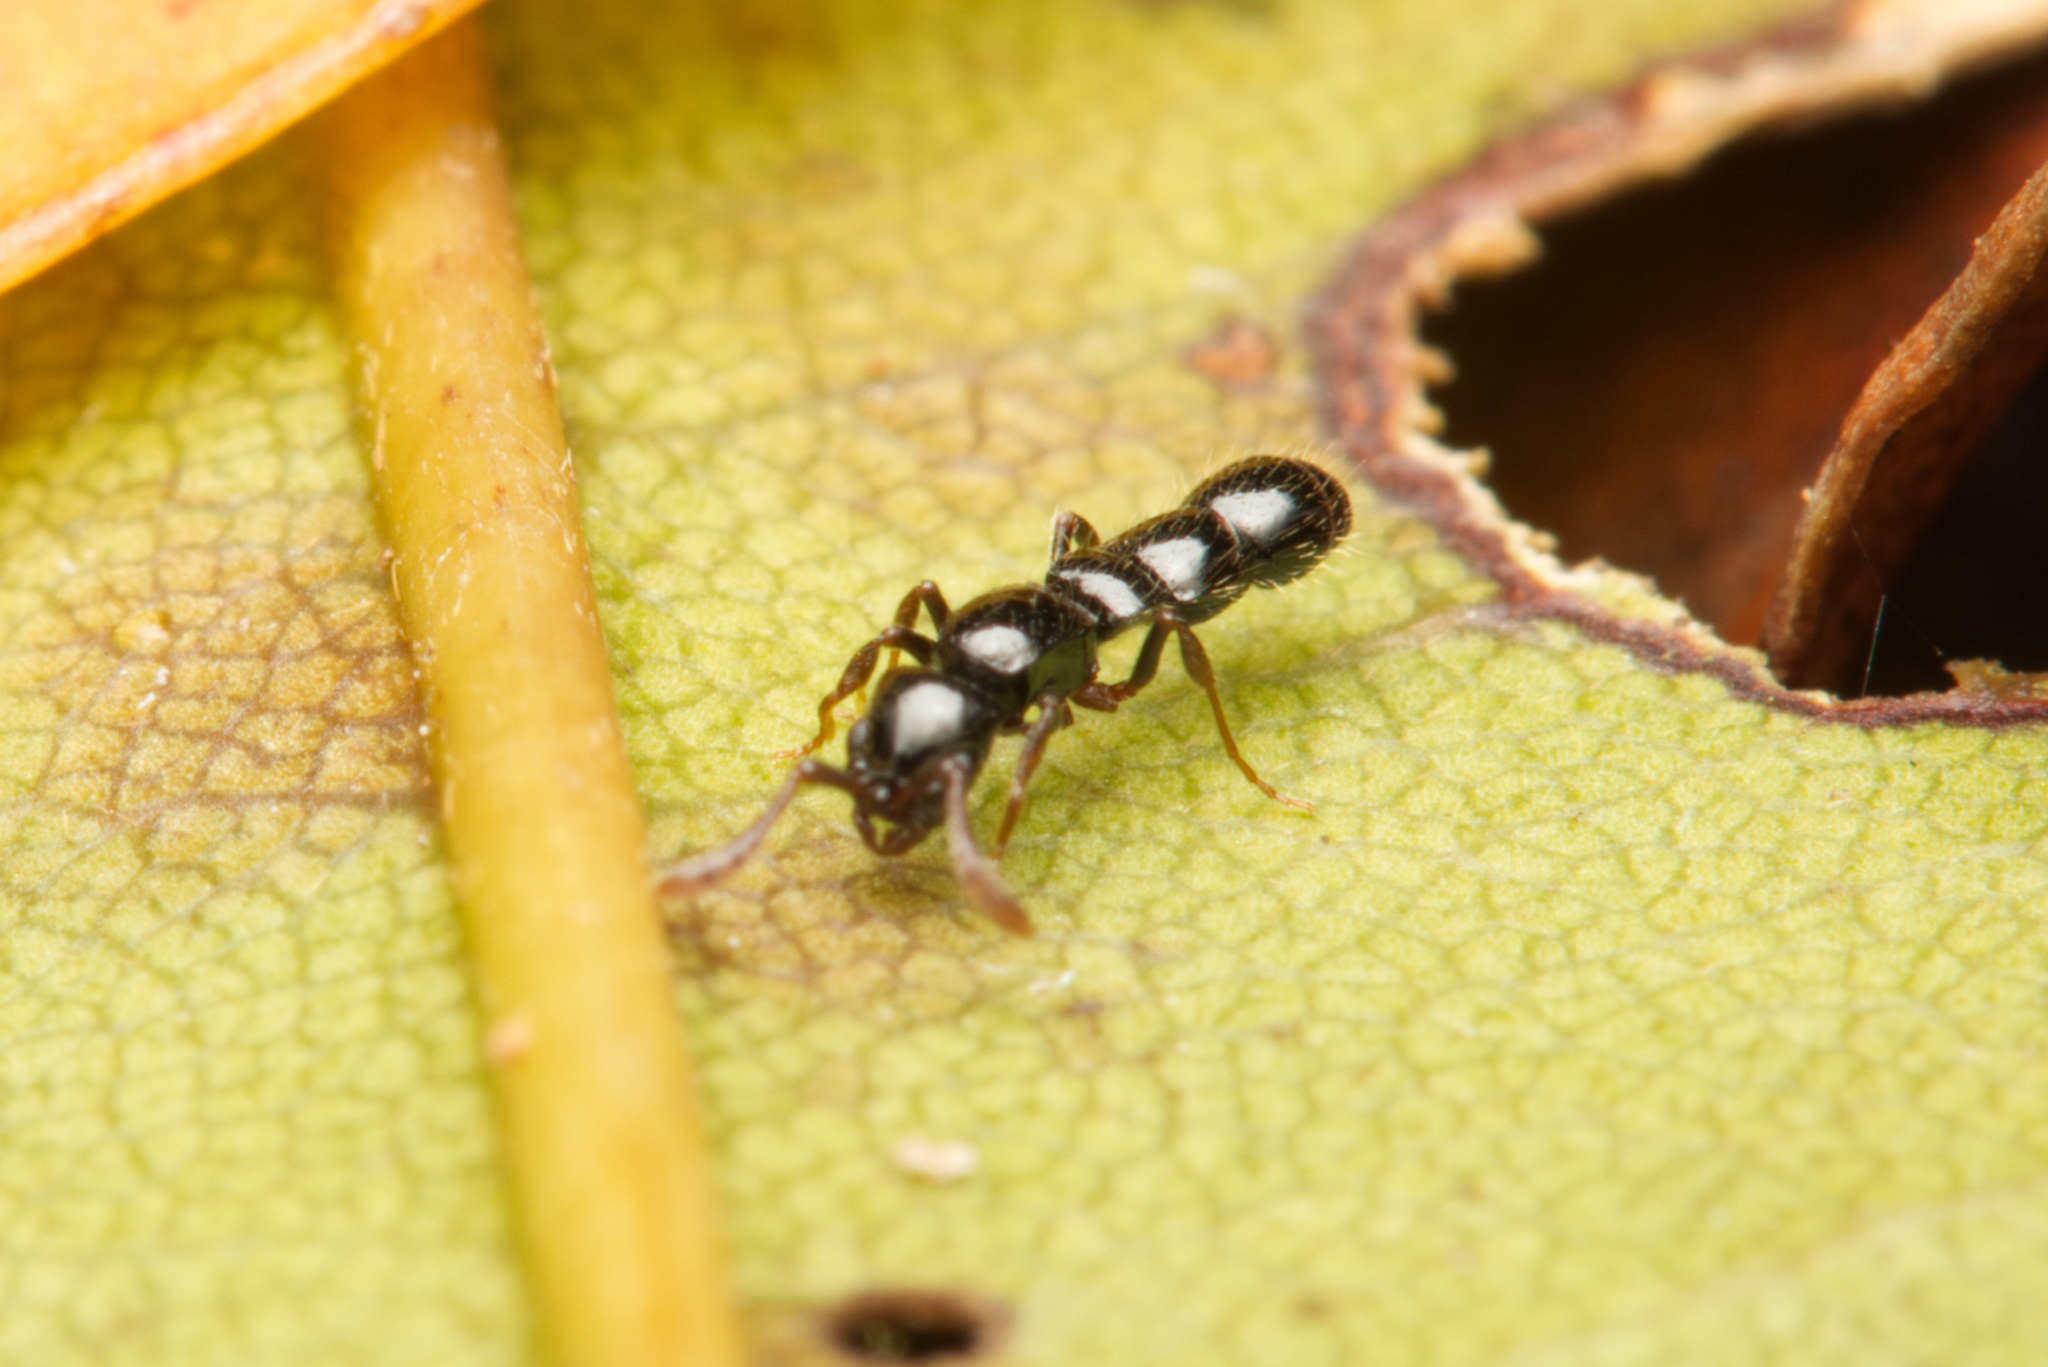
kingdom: Animalia
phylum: Arthropoda
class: Insecta
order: Hymenoptera
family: Formicidae
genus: Lioponera
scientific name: Lioponera
